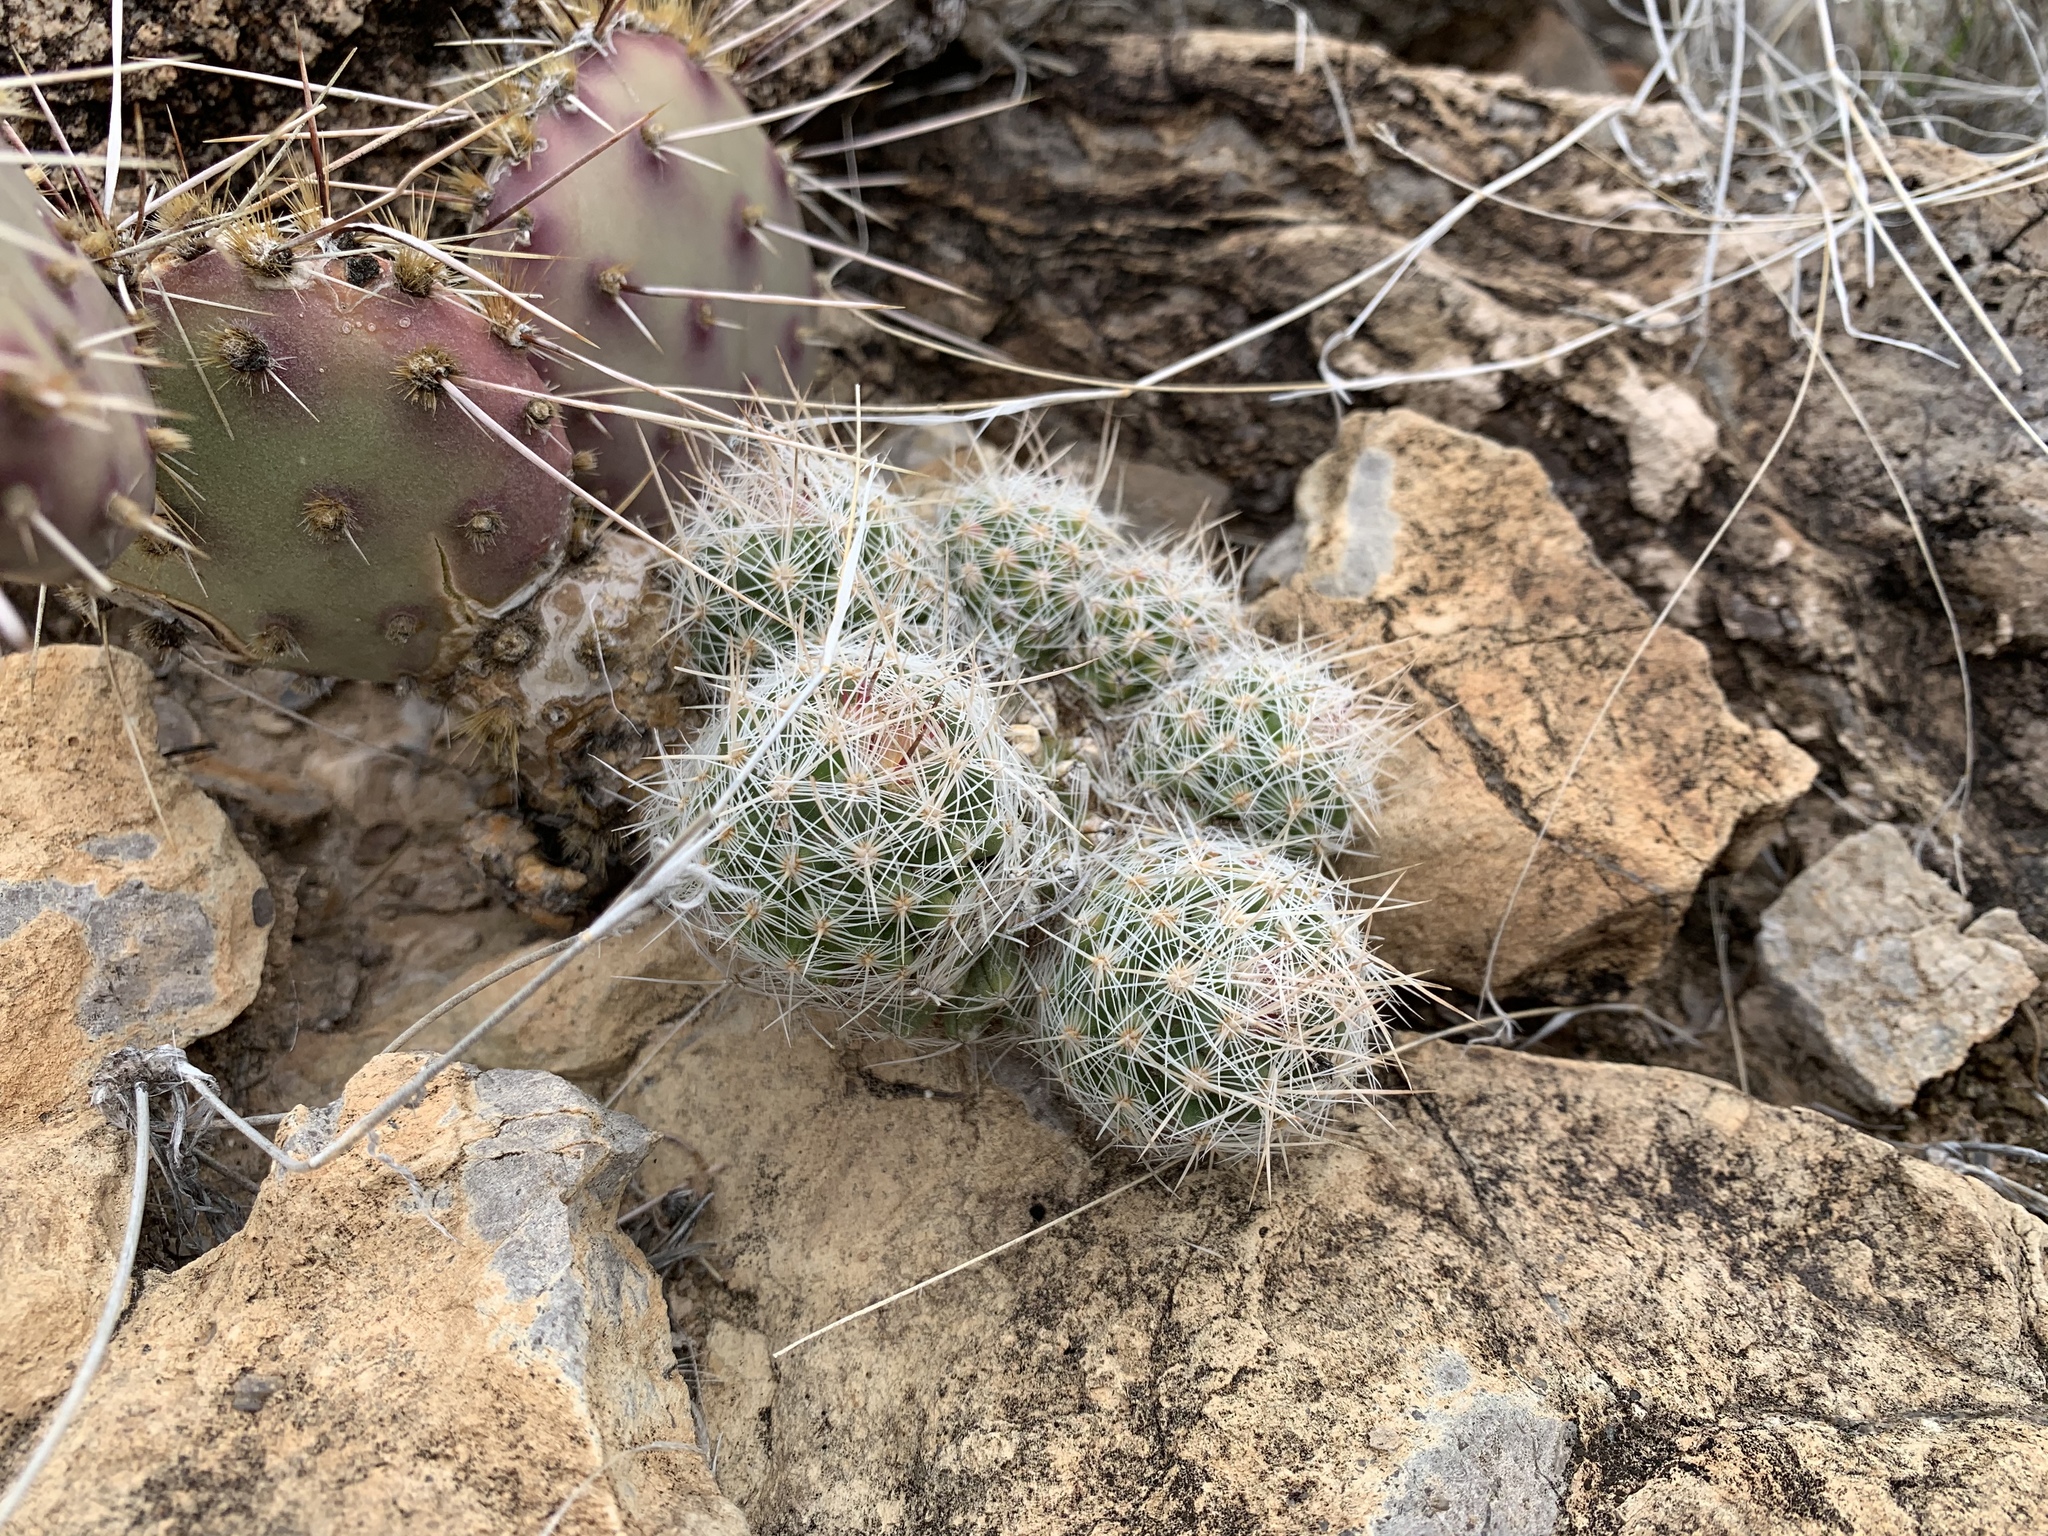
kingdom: Plantae
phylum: Tracheophyta
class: Magnoliopsida
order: Caryophyllales
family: Cactaceae
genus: Pelecyphora
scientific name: Pelecyphora tuberculosa
